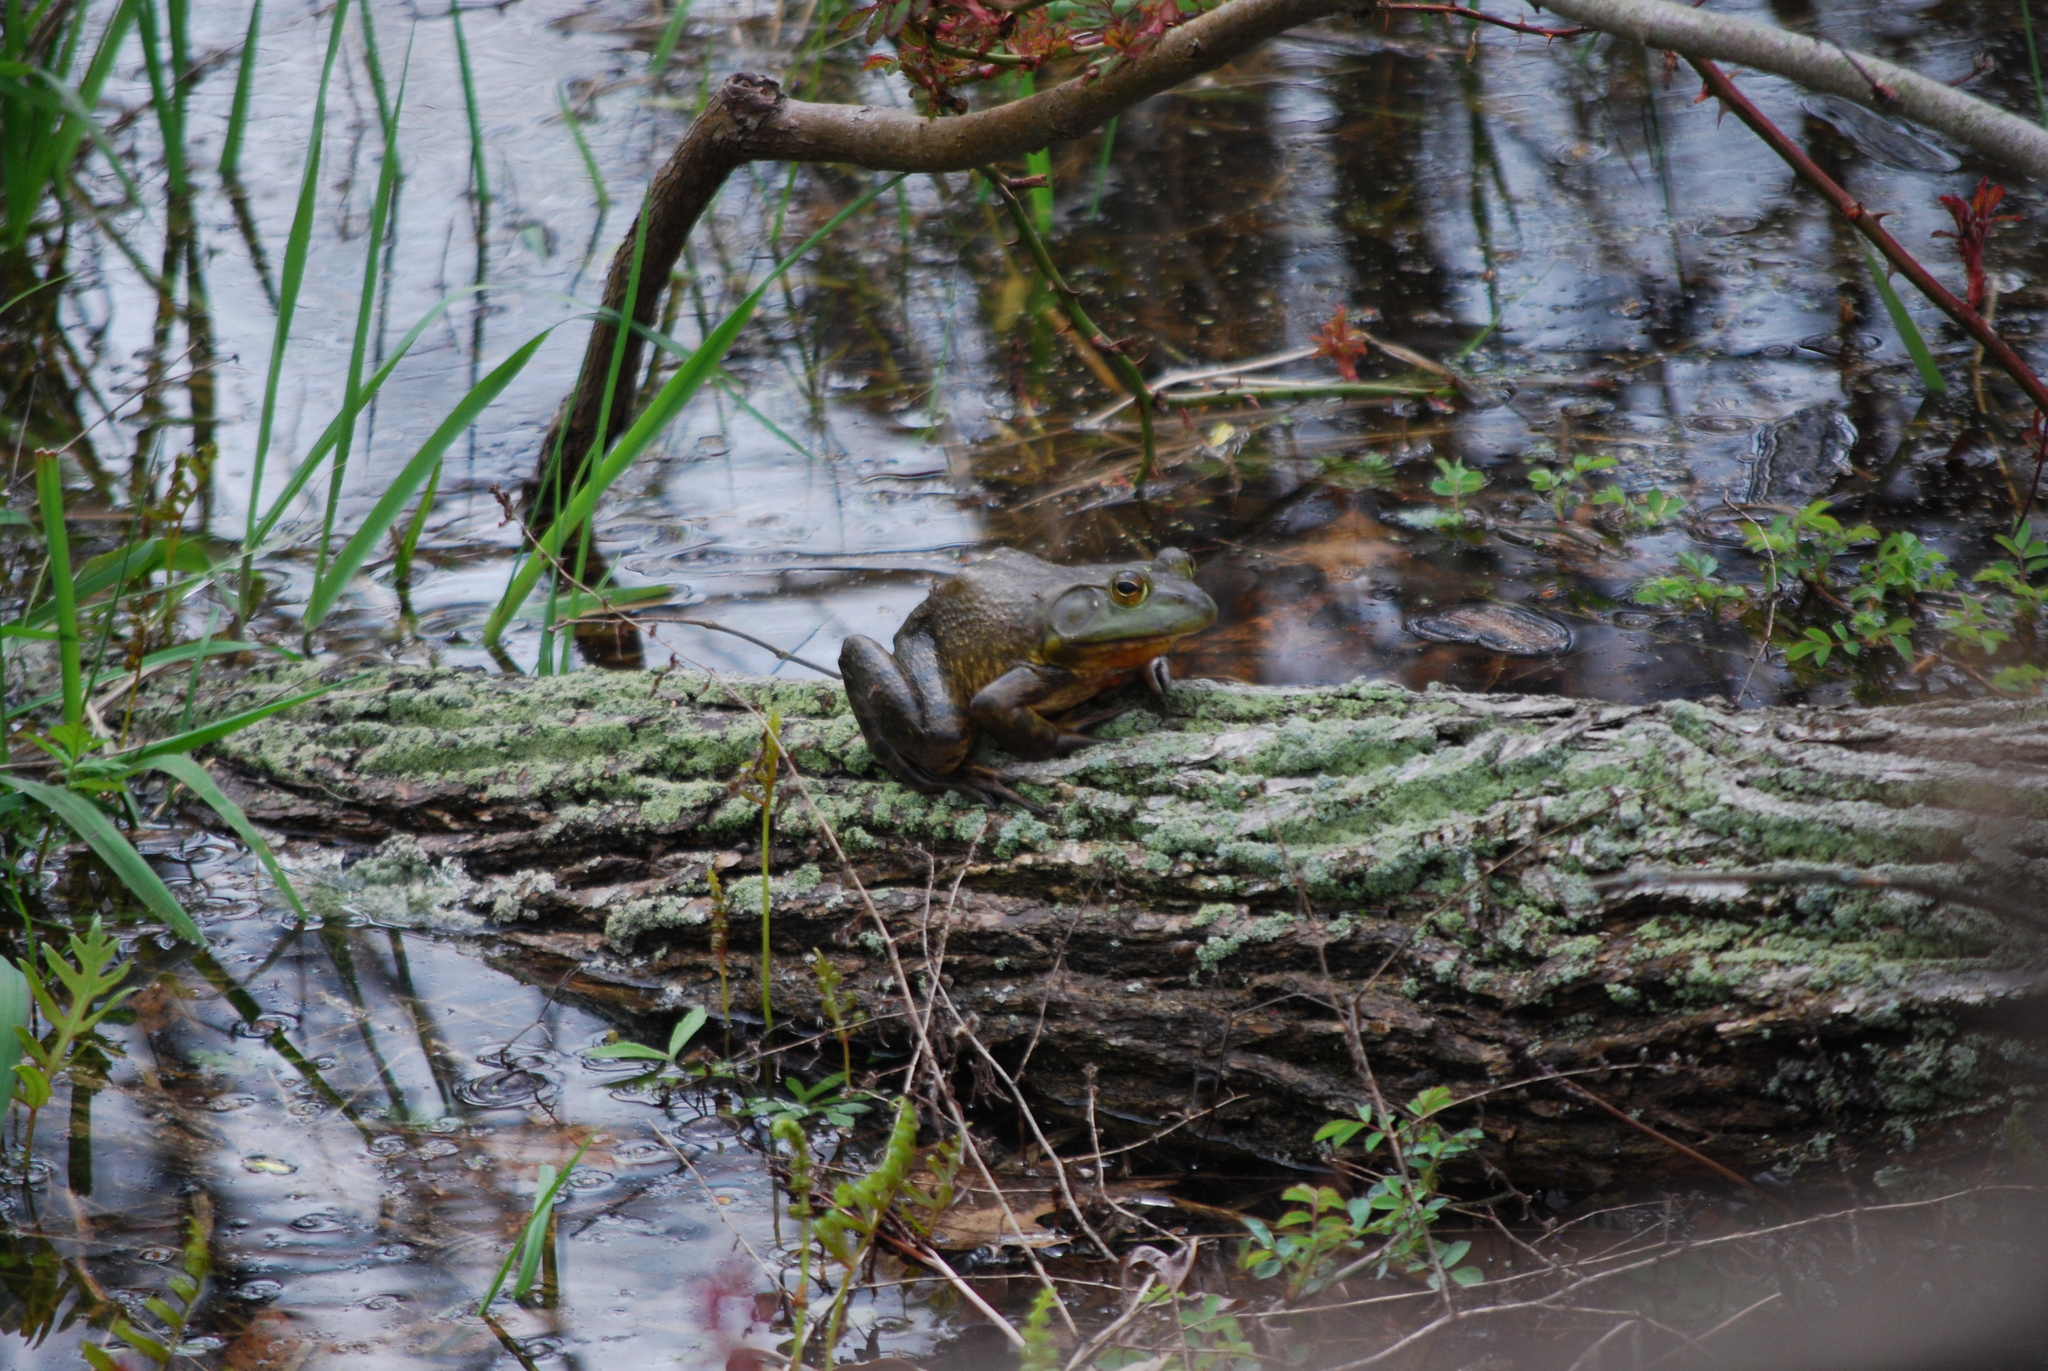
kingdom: Animalia
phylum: Chordata
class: Amphibia
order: Anura
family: Ranidae
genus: Lithobates
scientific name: Lithobates catesbeianus
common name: American bullfrog
